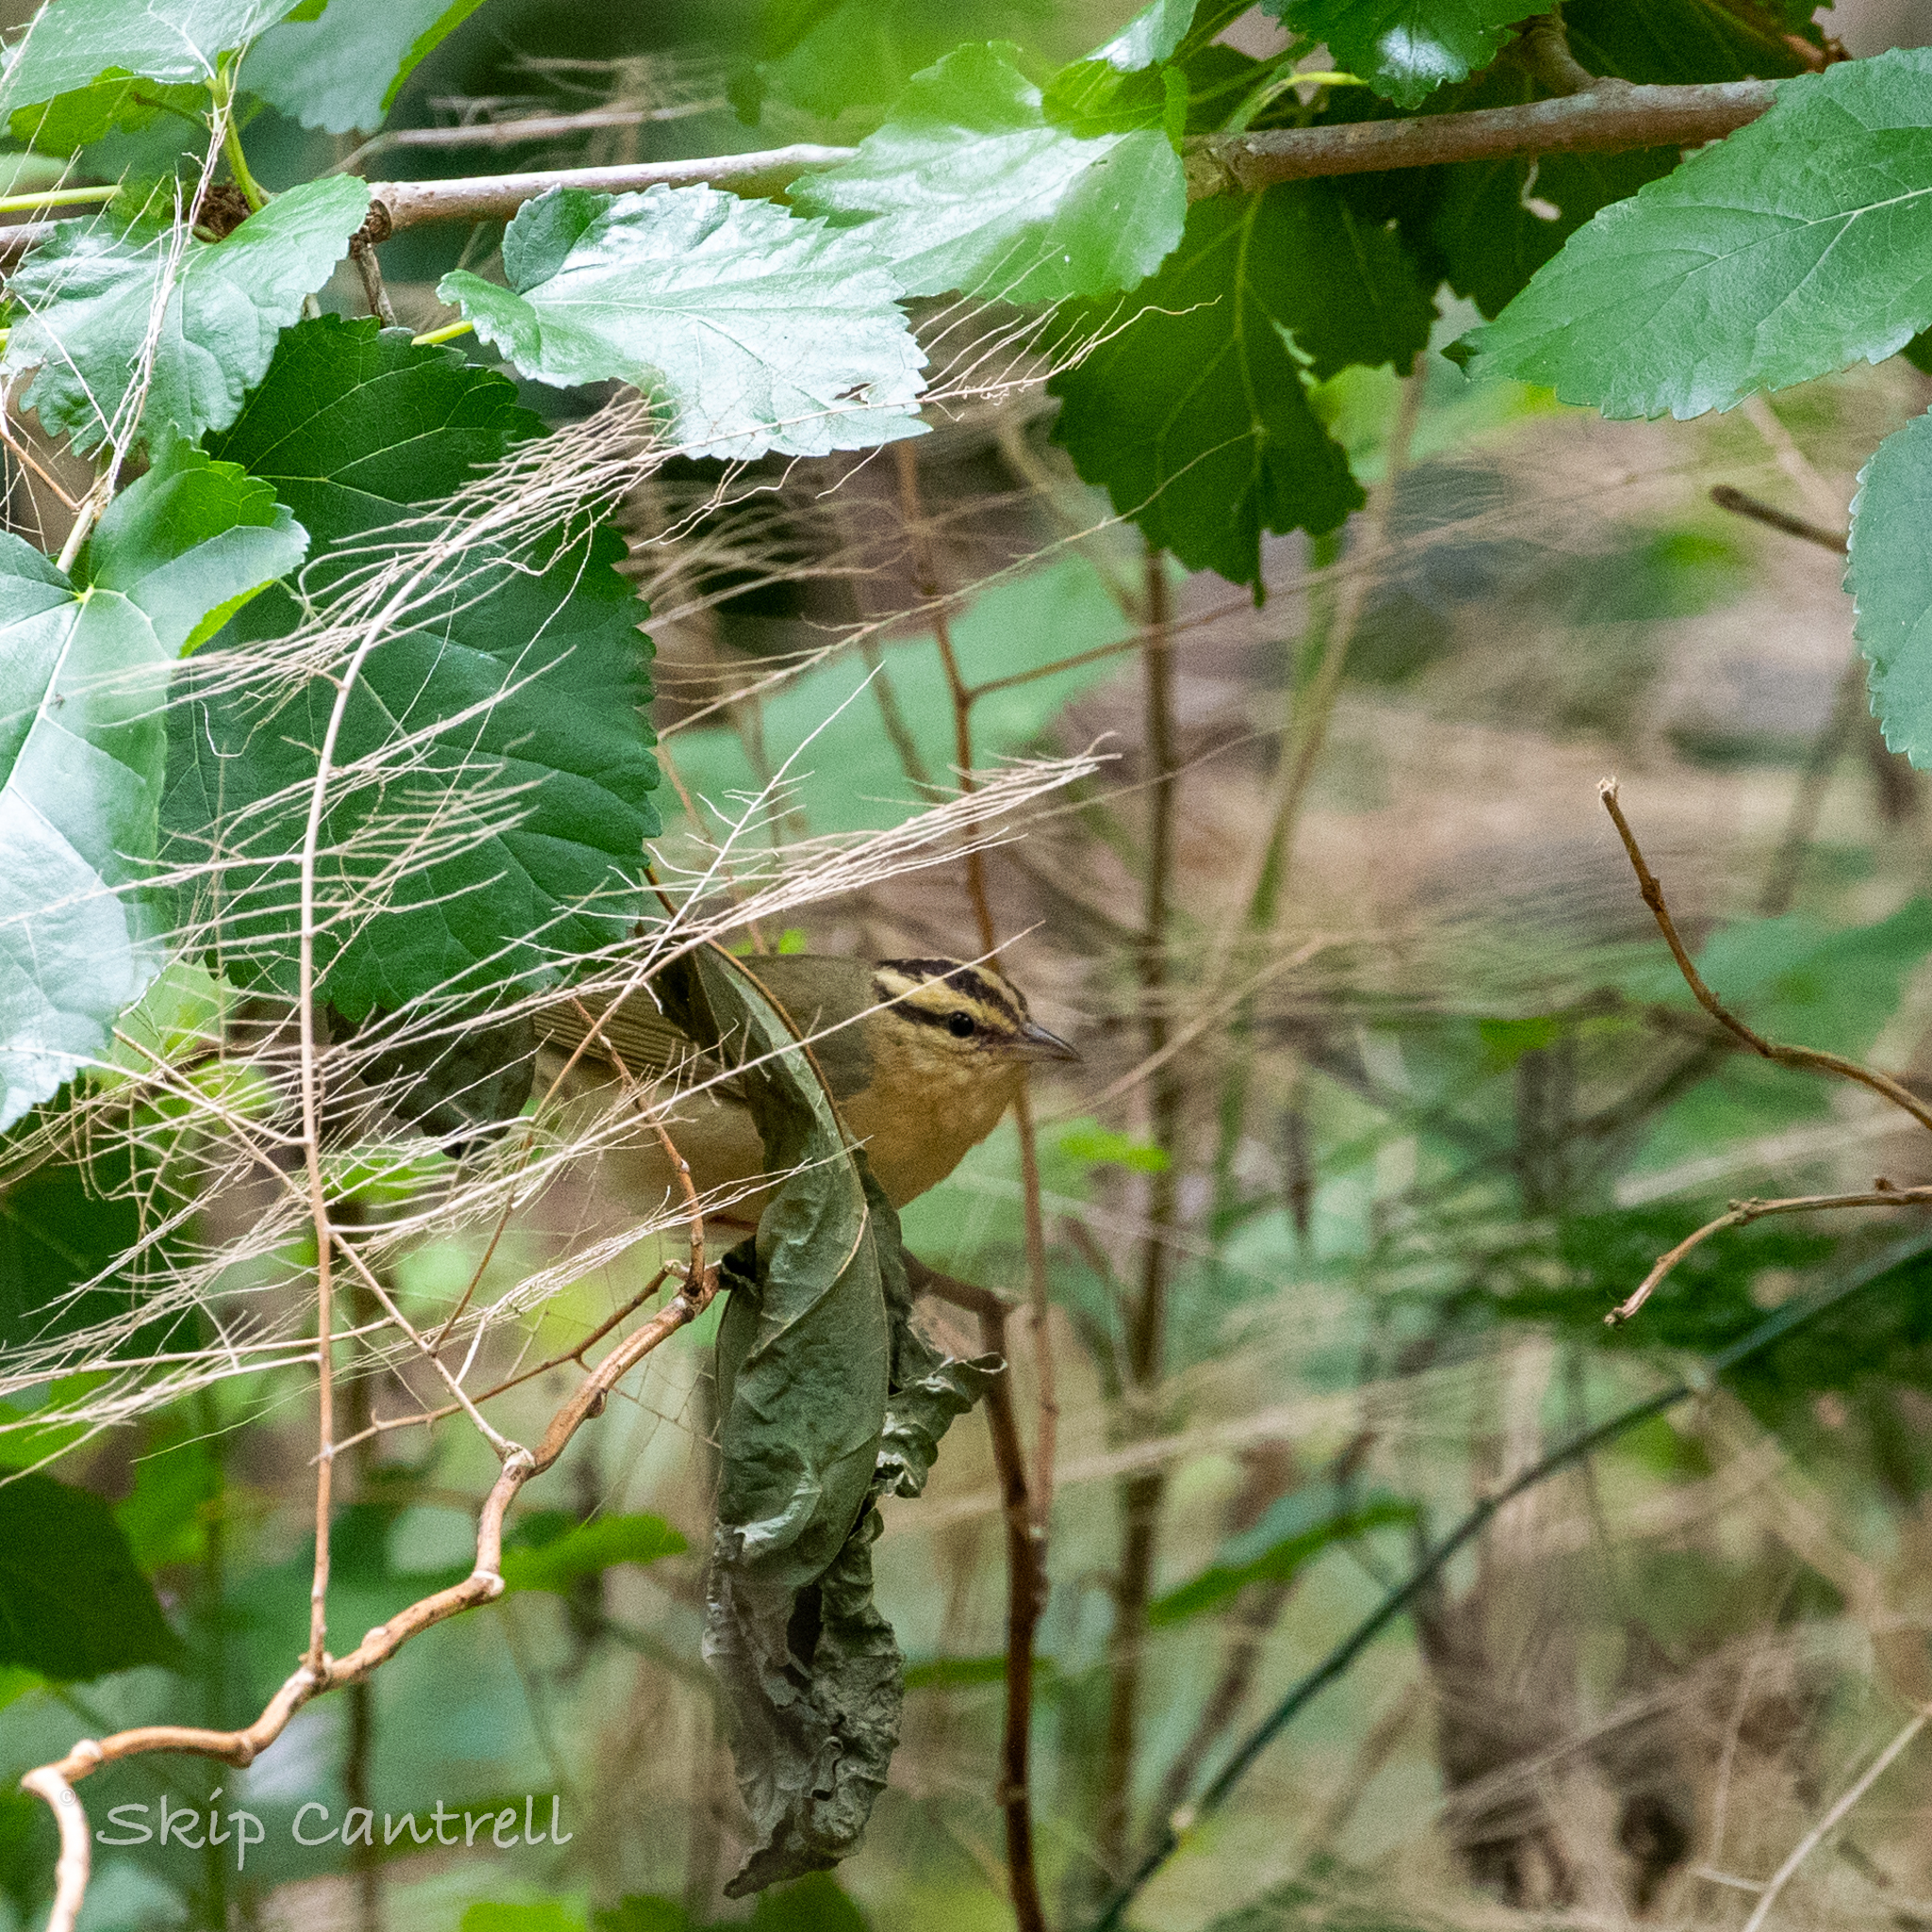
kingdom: Animalia
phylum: Chordata
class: Aves
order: Passeriformes
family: Parulidae
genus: Helmitheros
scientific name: Helmitheros vermivorum
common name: Worm-eating warbler
